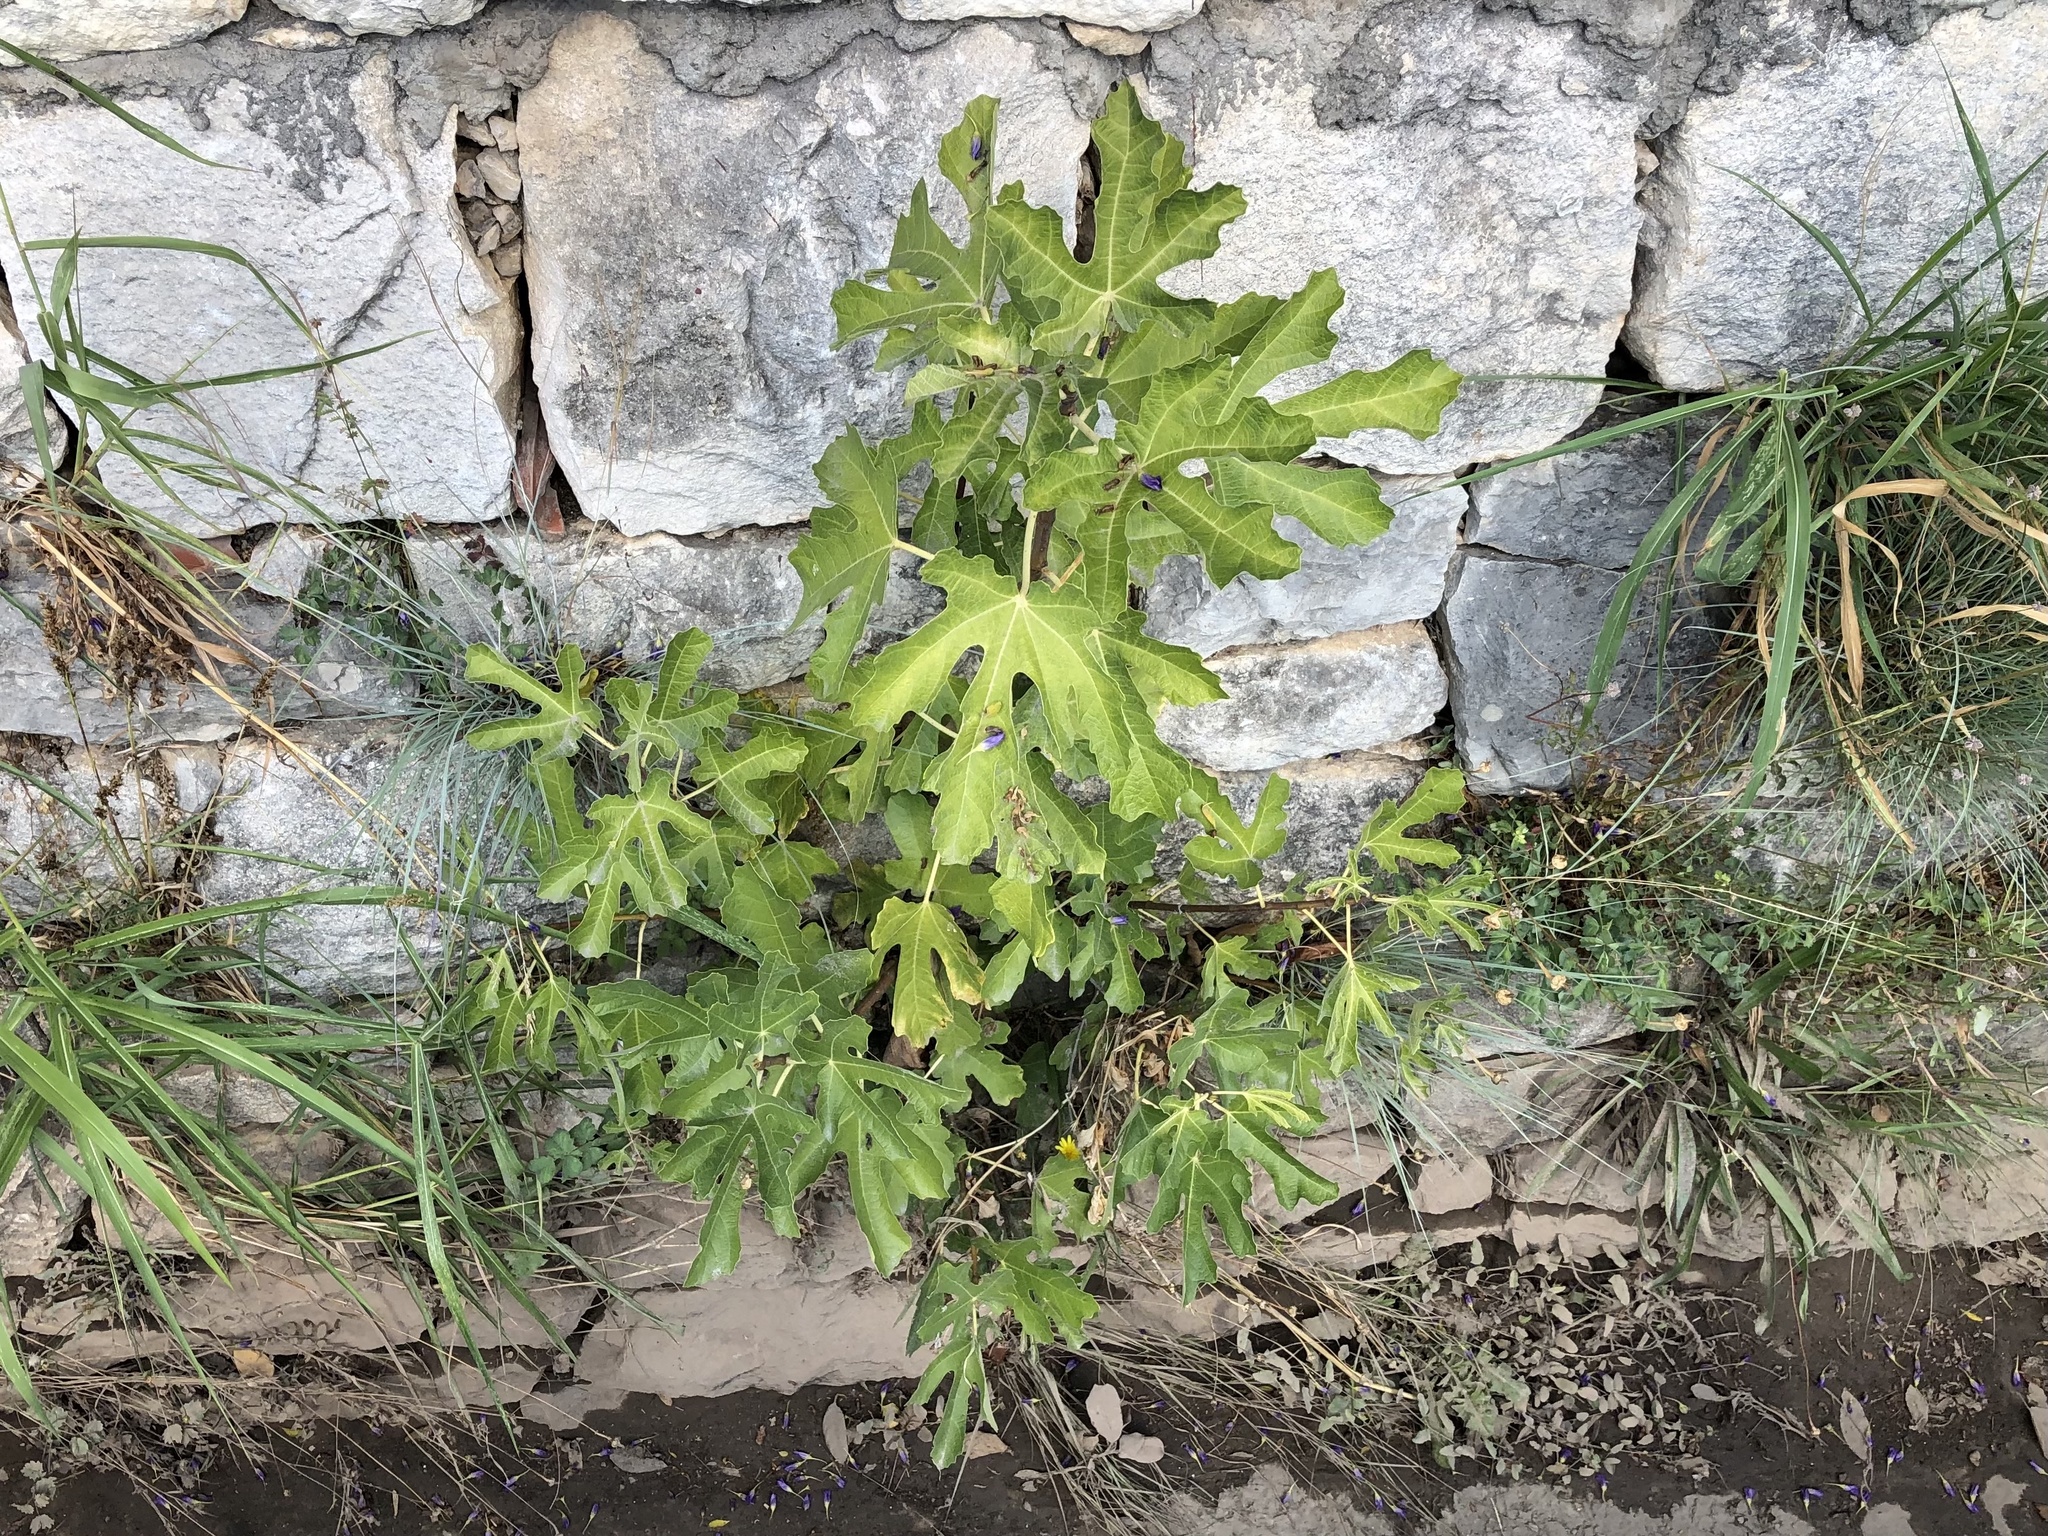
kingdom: Plantae
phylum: Tracheophyta
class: Magnoliopsida
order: Rosales
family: Moraceae
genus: Ficus
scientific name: Ficus carica
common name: Fig
